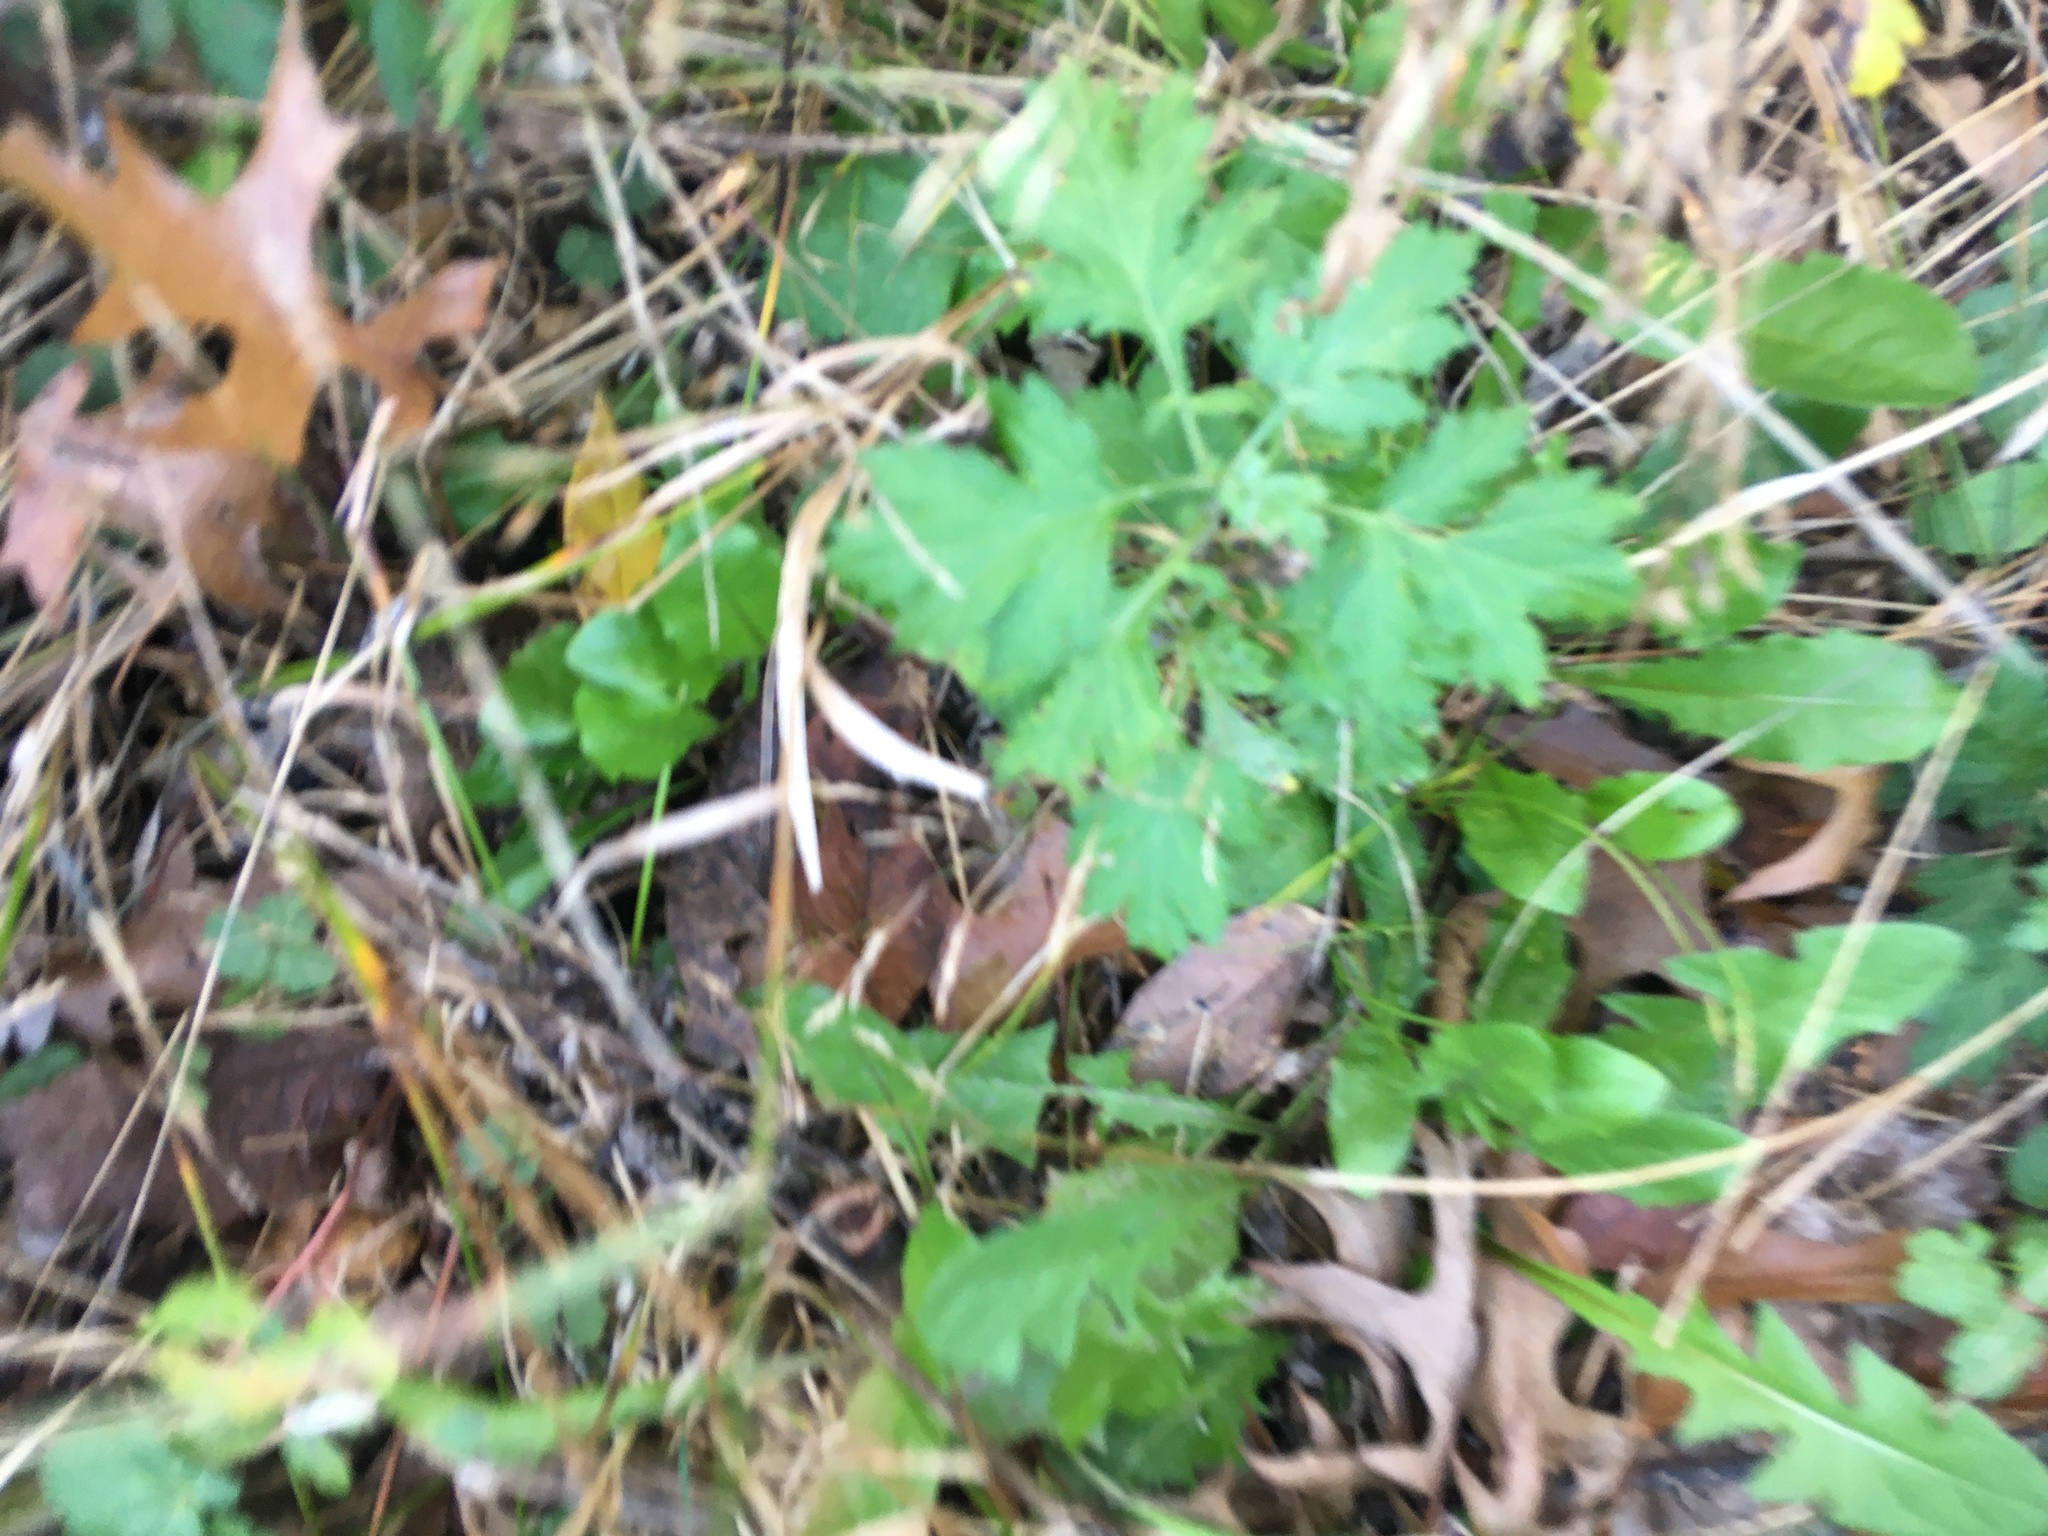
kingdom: Plantae
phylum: Tracheophyta
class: Magnoliopsida
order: Asterales
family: Asteraceae
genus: Artemisia
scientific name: Artemisia vulgaris
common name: Mugwort
